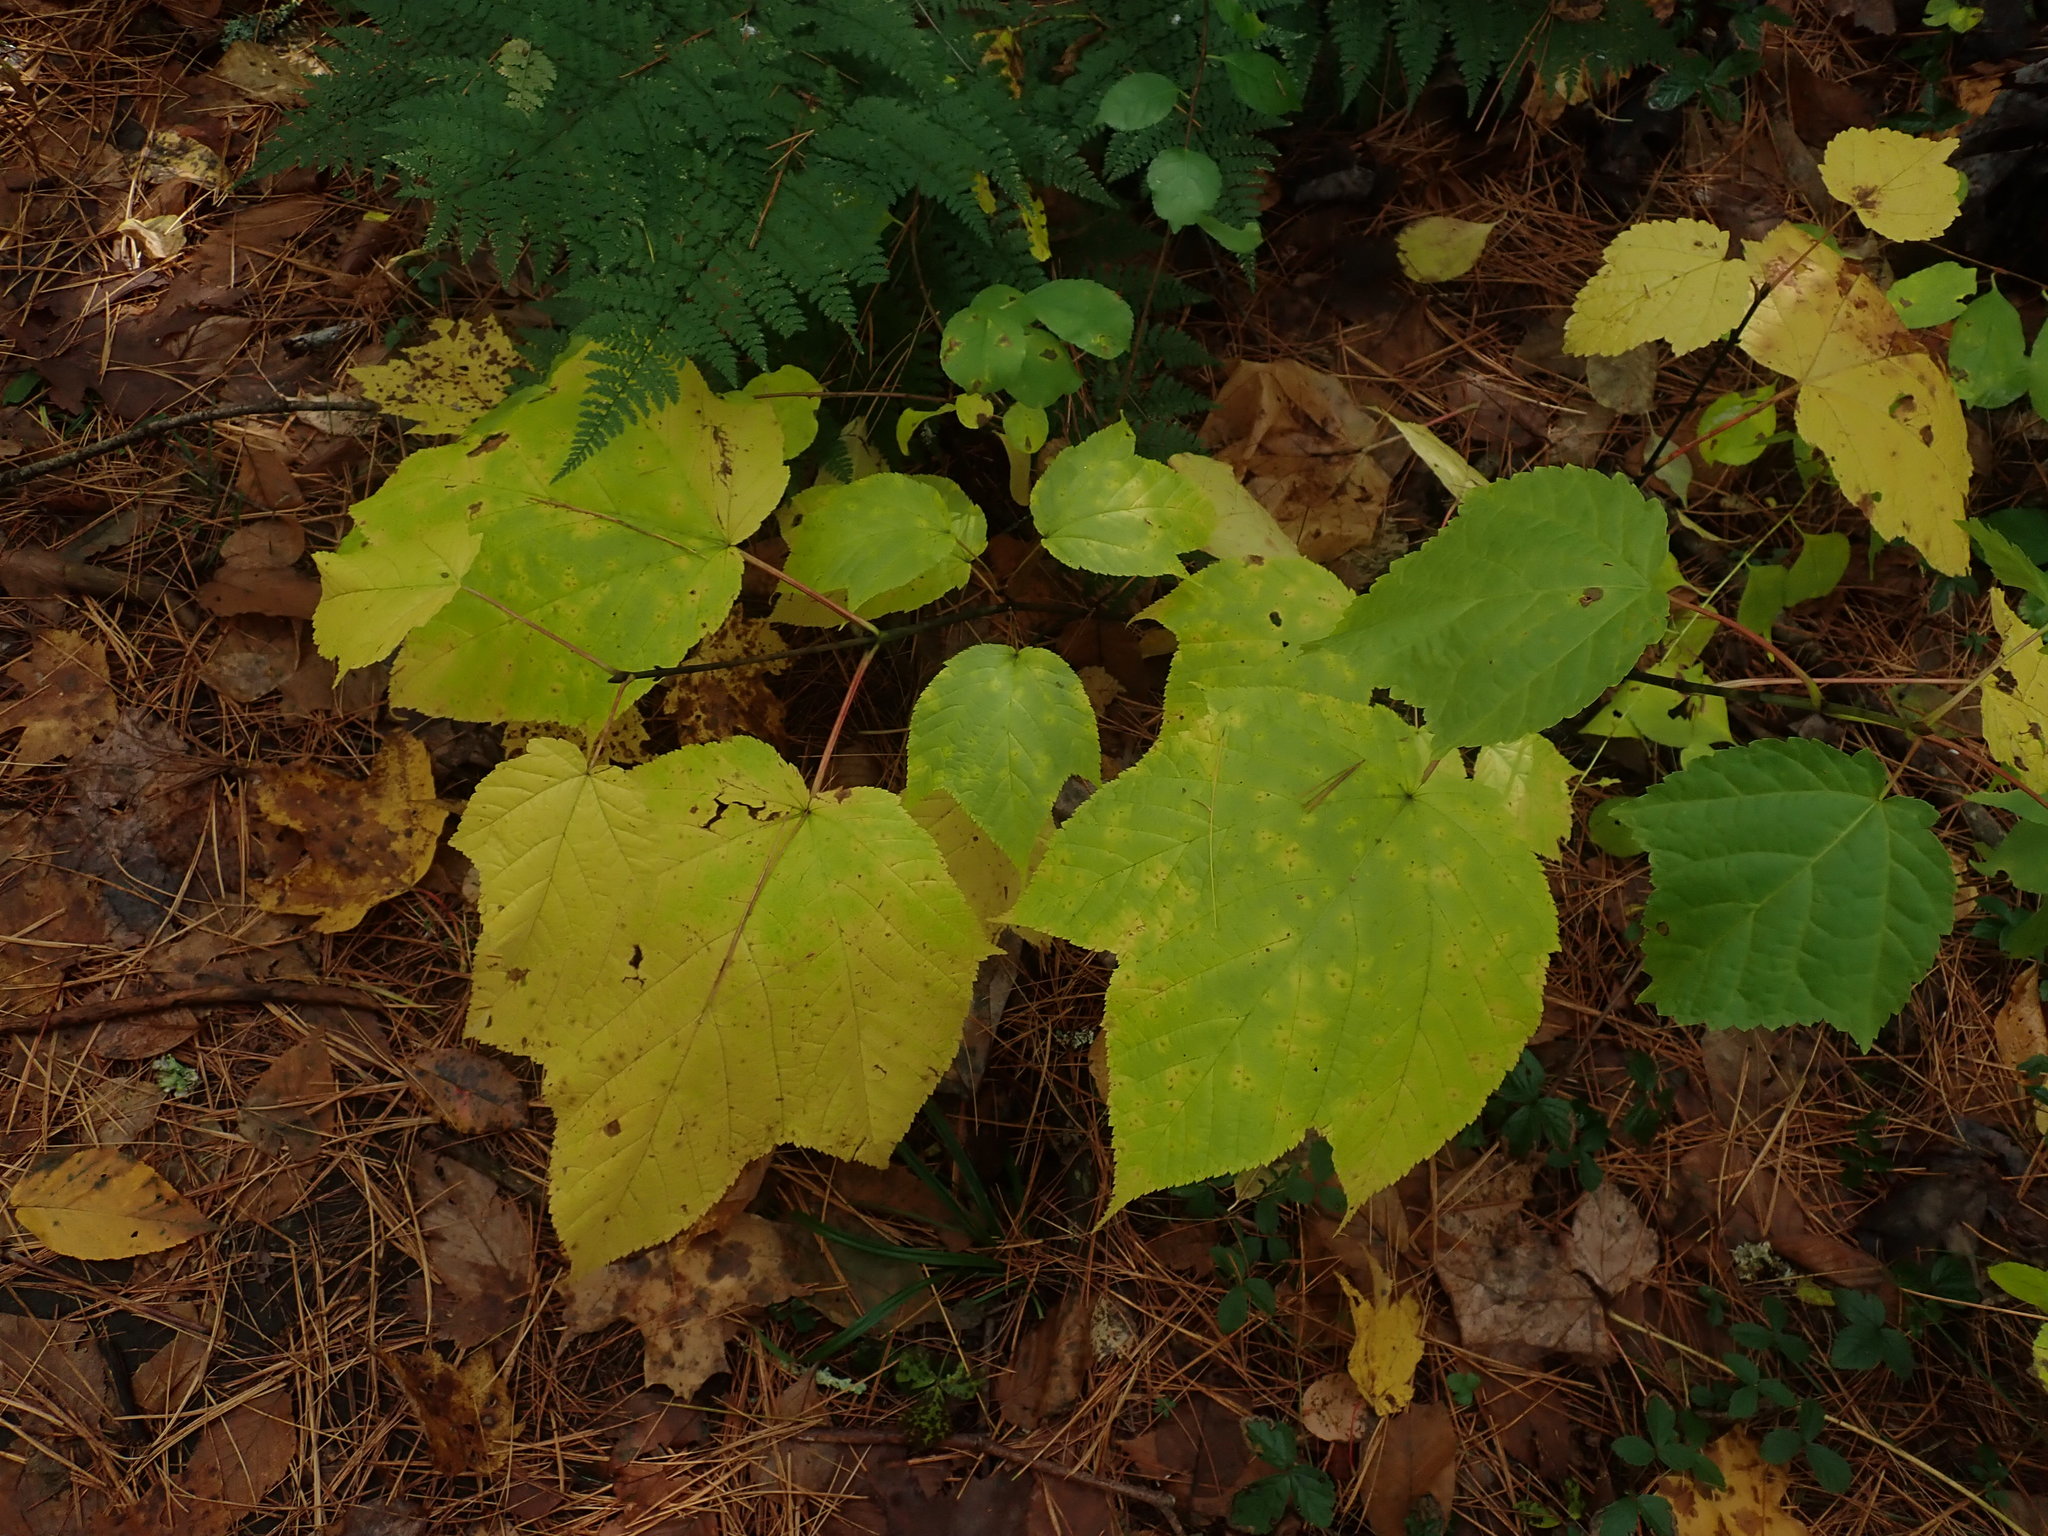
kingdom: Plantae
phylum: Tracheophyta
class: Magnoliopsida
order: Sapindales
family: Sapindaceae
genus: Acer
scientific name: Acer pensylvanicum
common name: Moosewood
